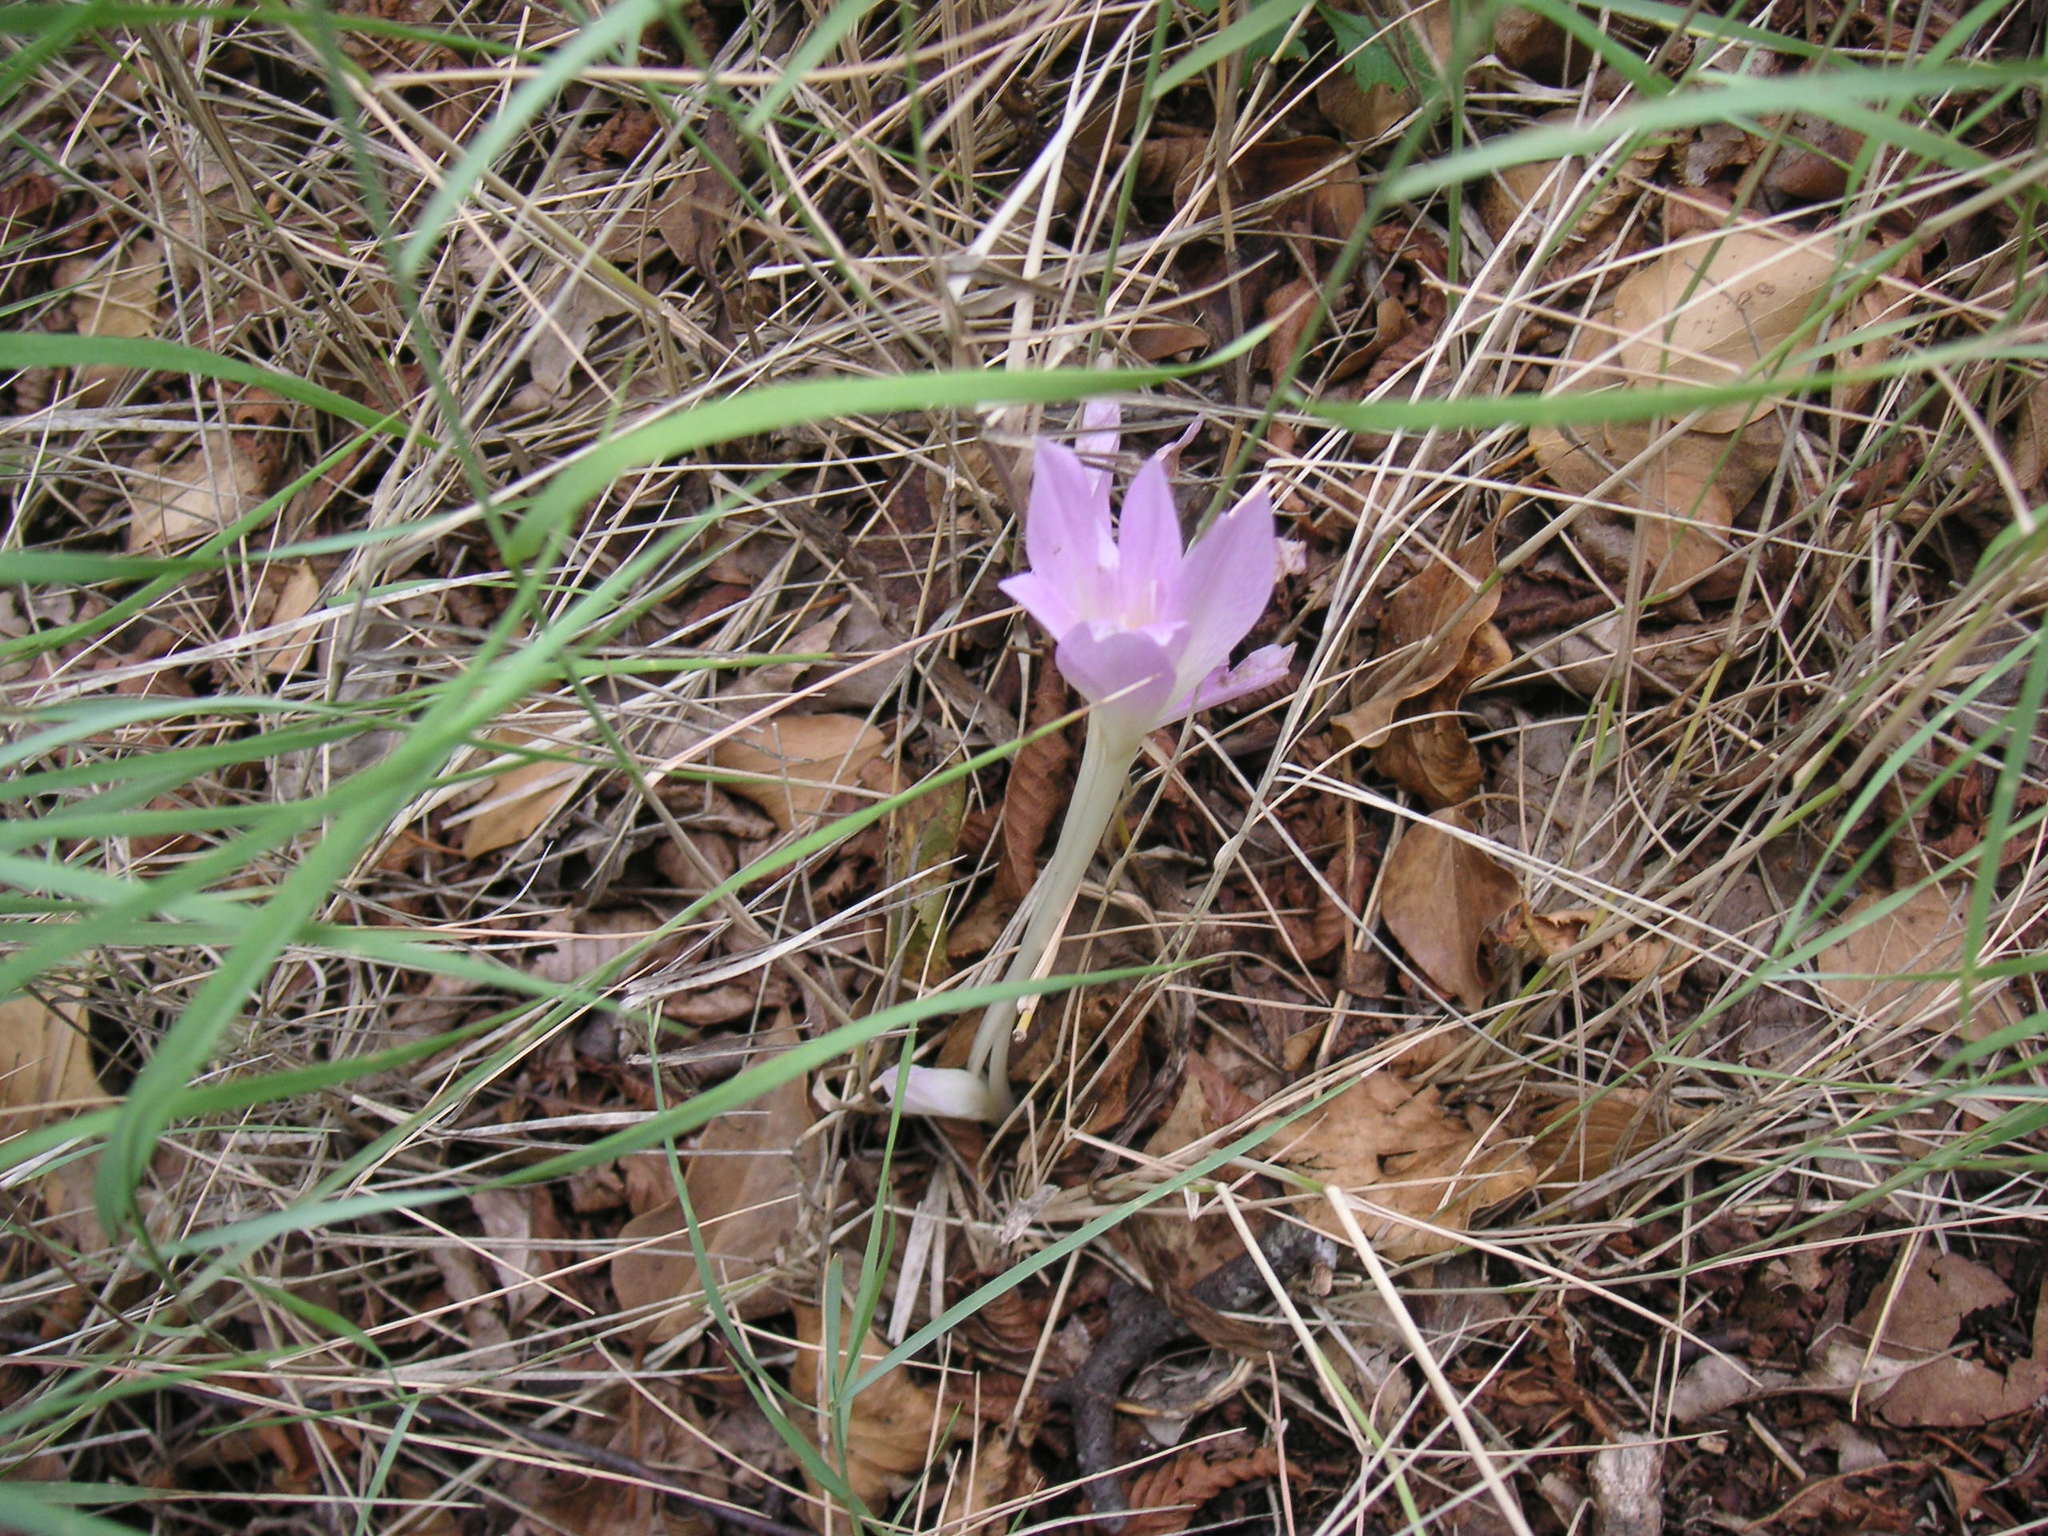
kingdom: Plantae
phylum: Tracheophyta
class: Liliopsida
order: Liliales
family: Colchicaceae
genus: Colchicum
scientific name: Colchicum haynaldii
